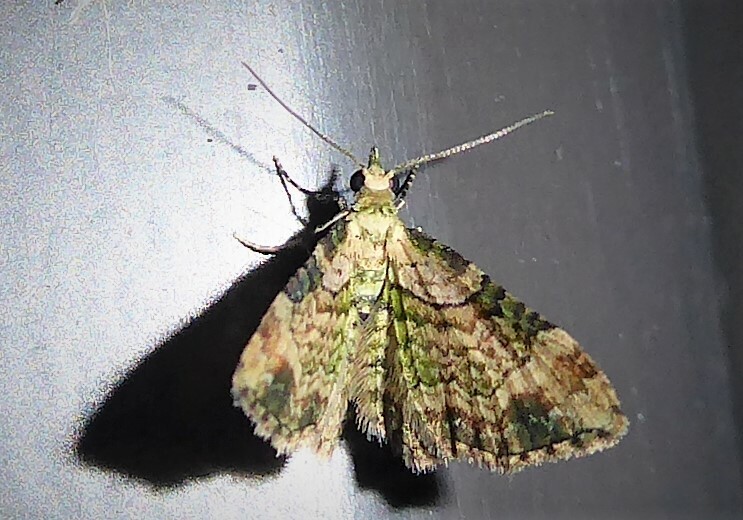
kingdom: Animalia
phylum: Arthropoda
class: Insecta
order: Lepidoptera
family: Geometridae
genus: Chloroclystis
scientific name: Chloroclystis
